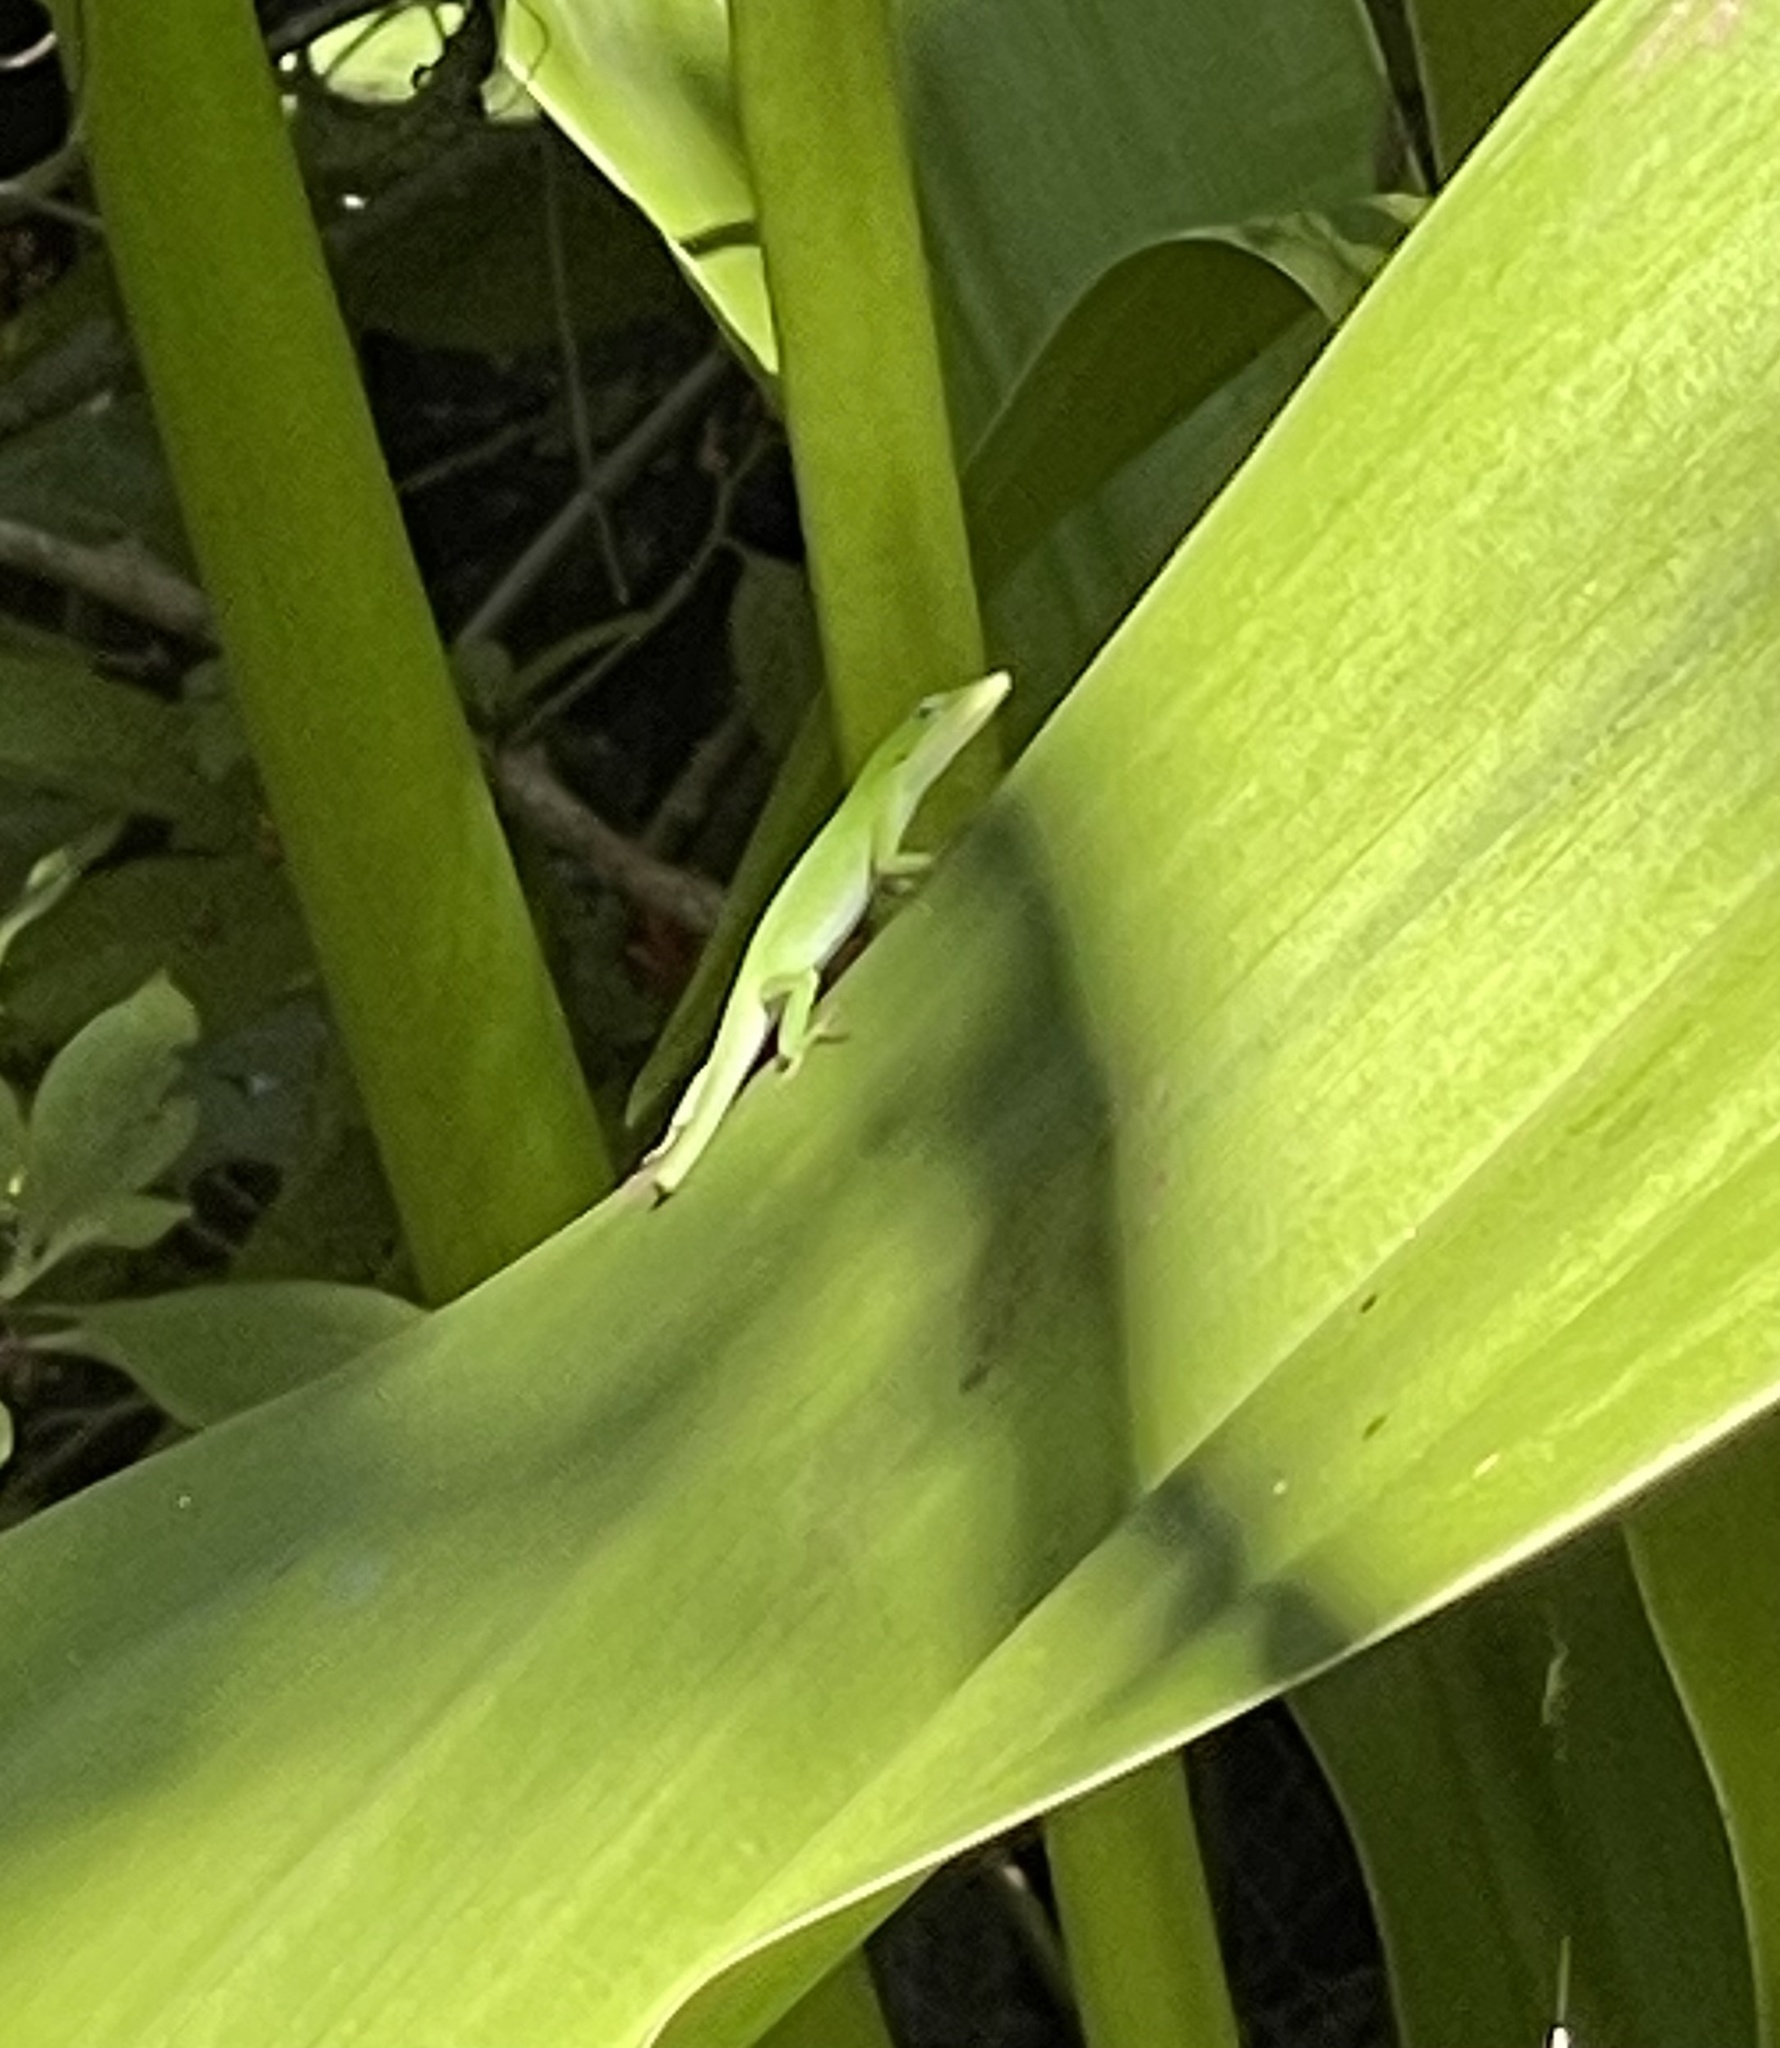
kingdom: Animalia
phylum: Chordata
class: Squamata
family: Dactyloidae
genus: Anolis
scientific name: Anolis carolinensis
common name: Green anole
